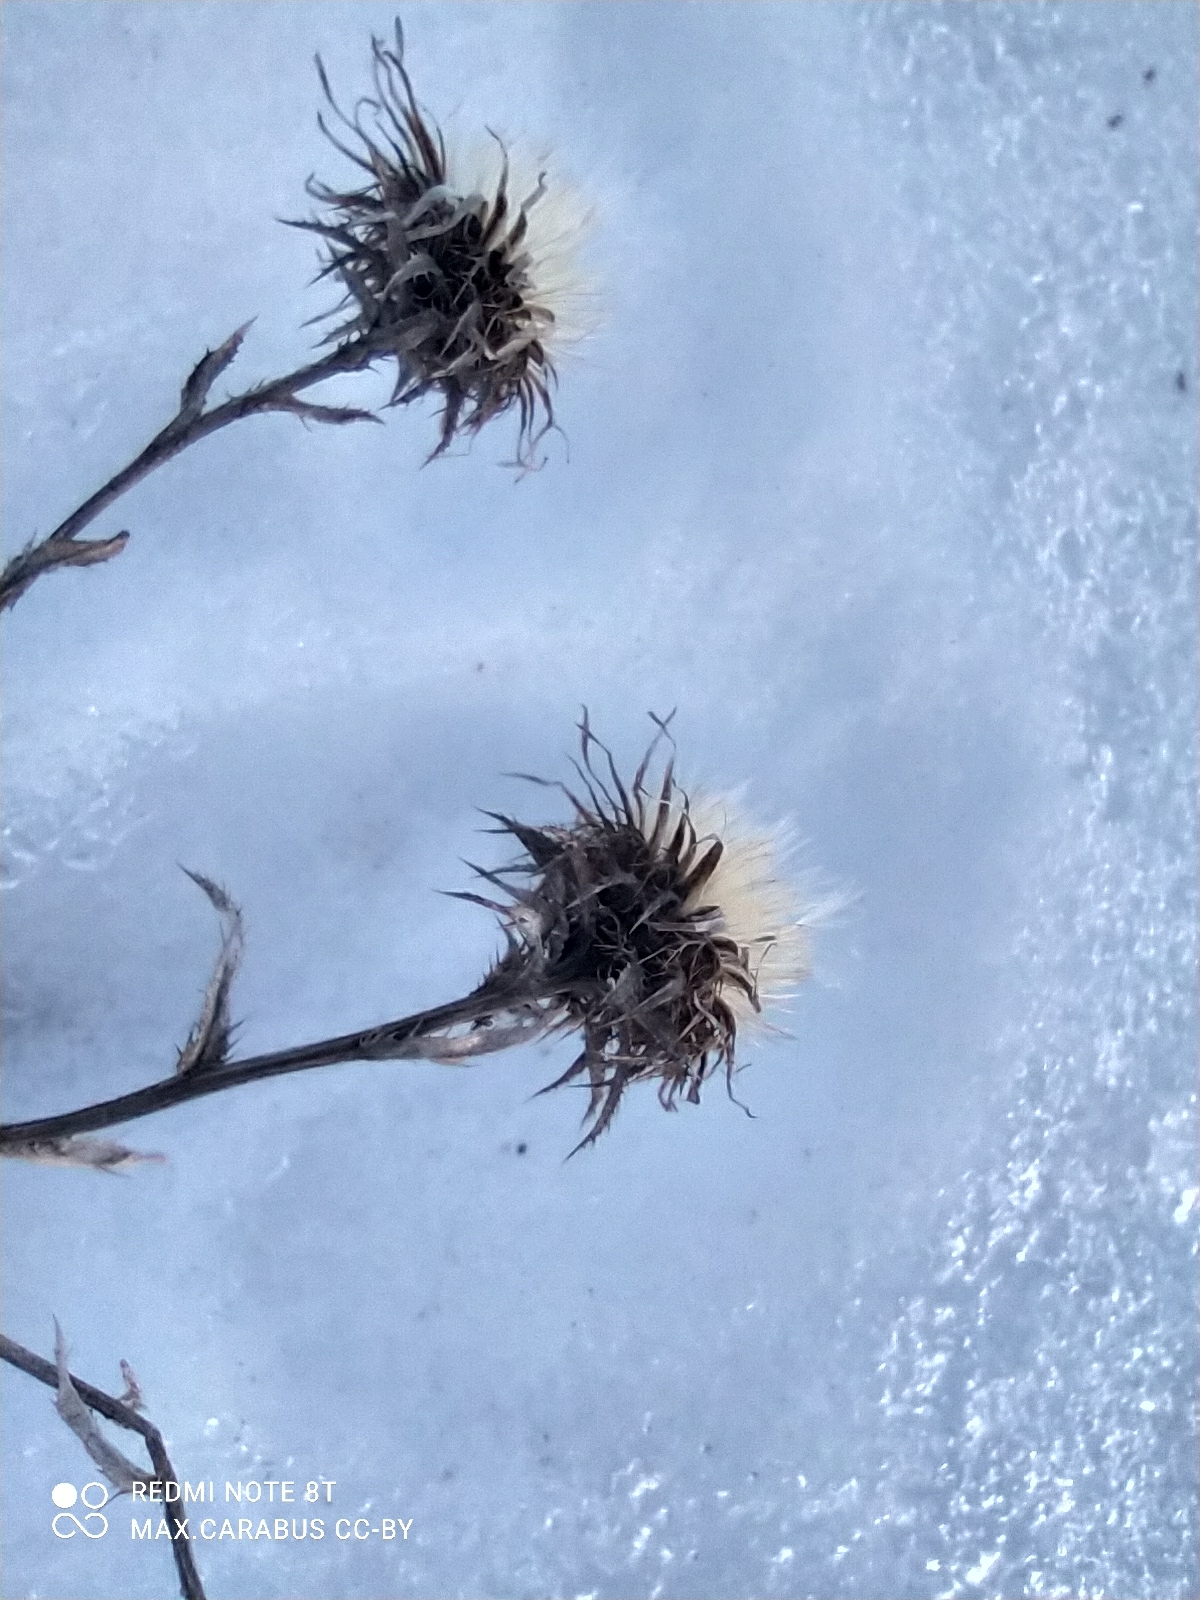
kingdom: Plantae
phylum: Tracheophyta
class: Magnoliopsida
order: Asterales
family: Asteraceae
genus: Carlina
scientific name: Carlina biebersteinii
